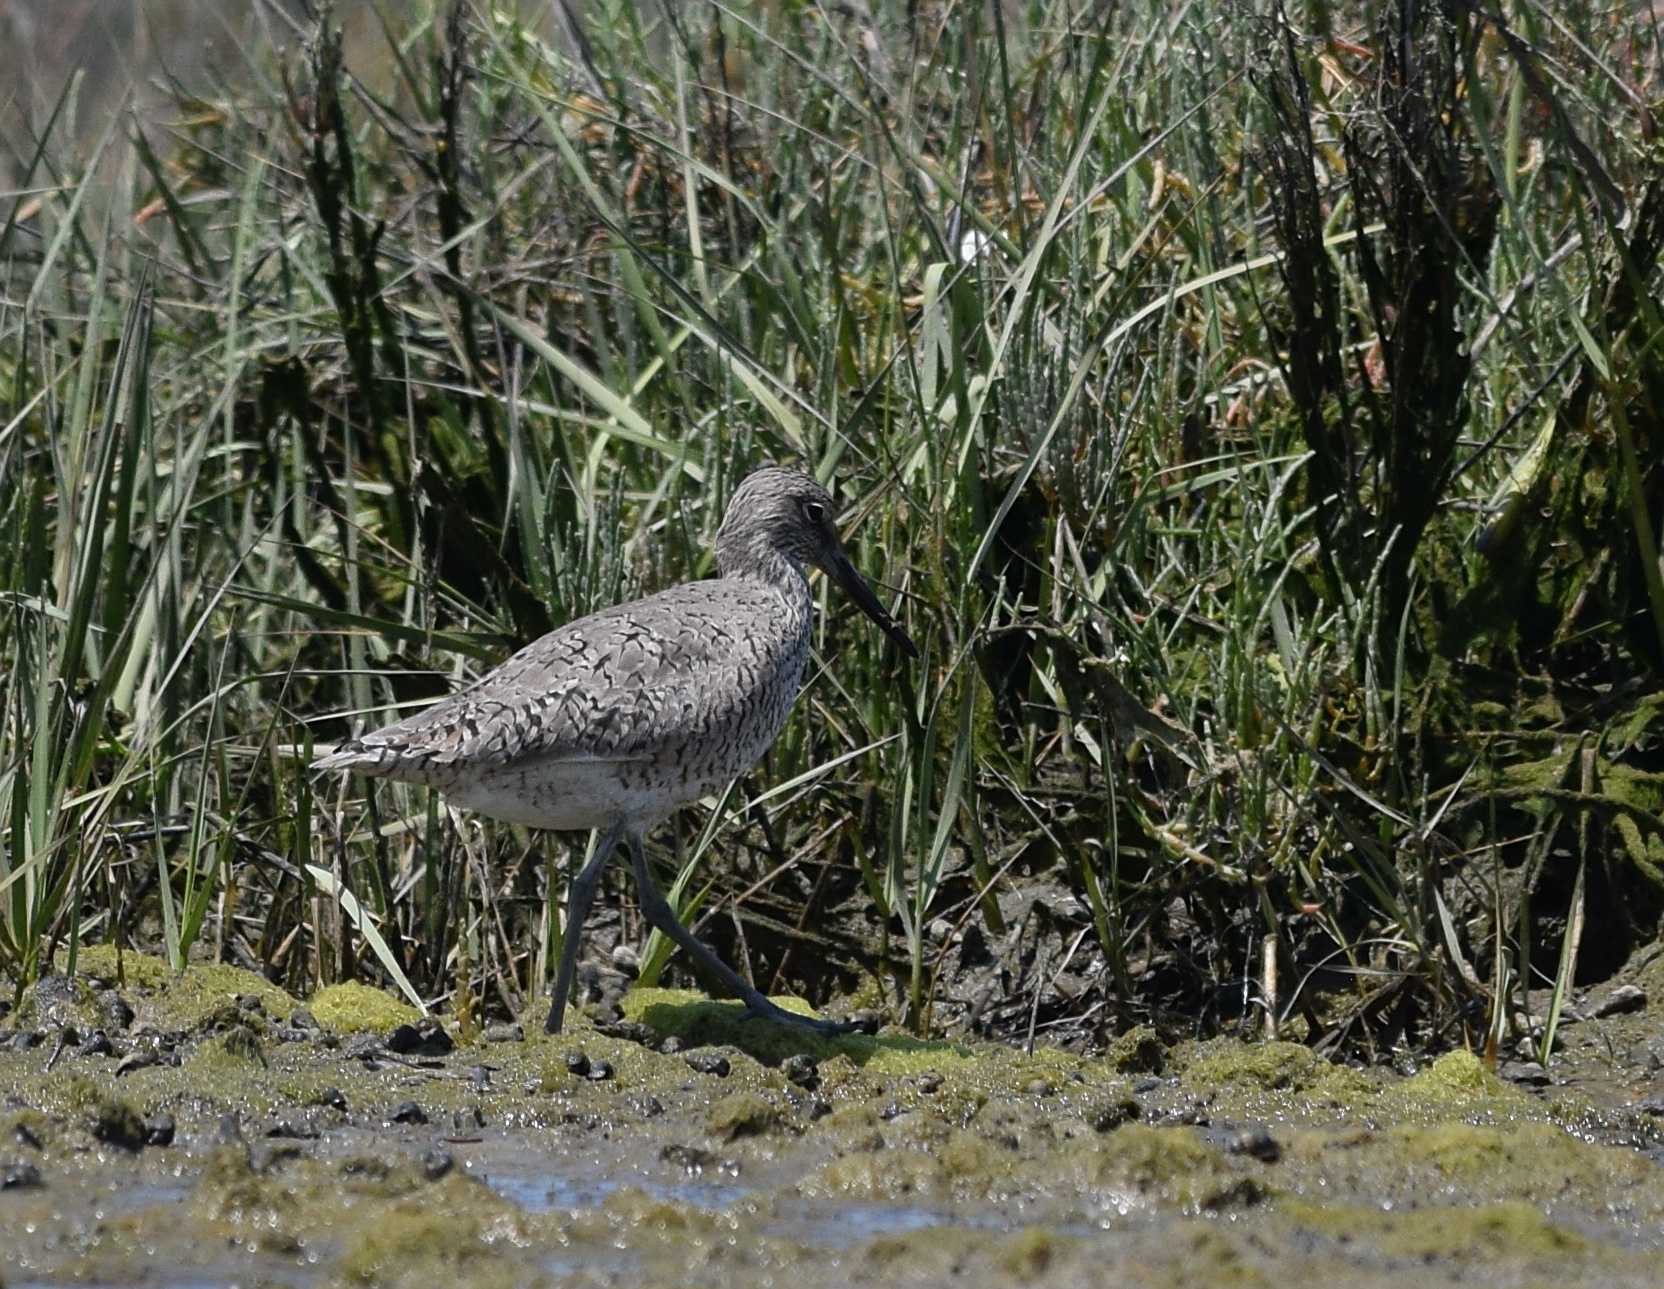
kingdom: Animalia
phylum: Chordata
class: Aves
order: Charadriiformes
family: Scolopacidae
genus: Tringa
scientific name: Tringa semipalmata
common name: Willet
